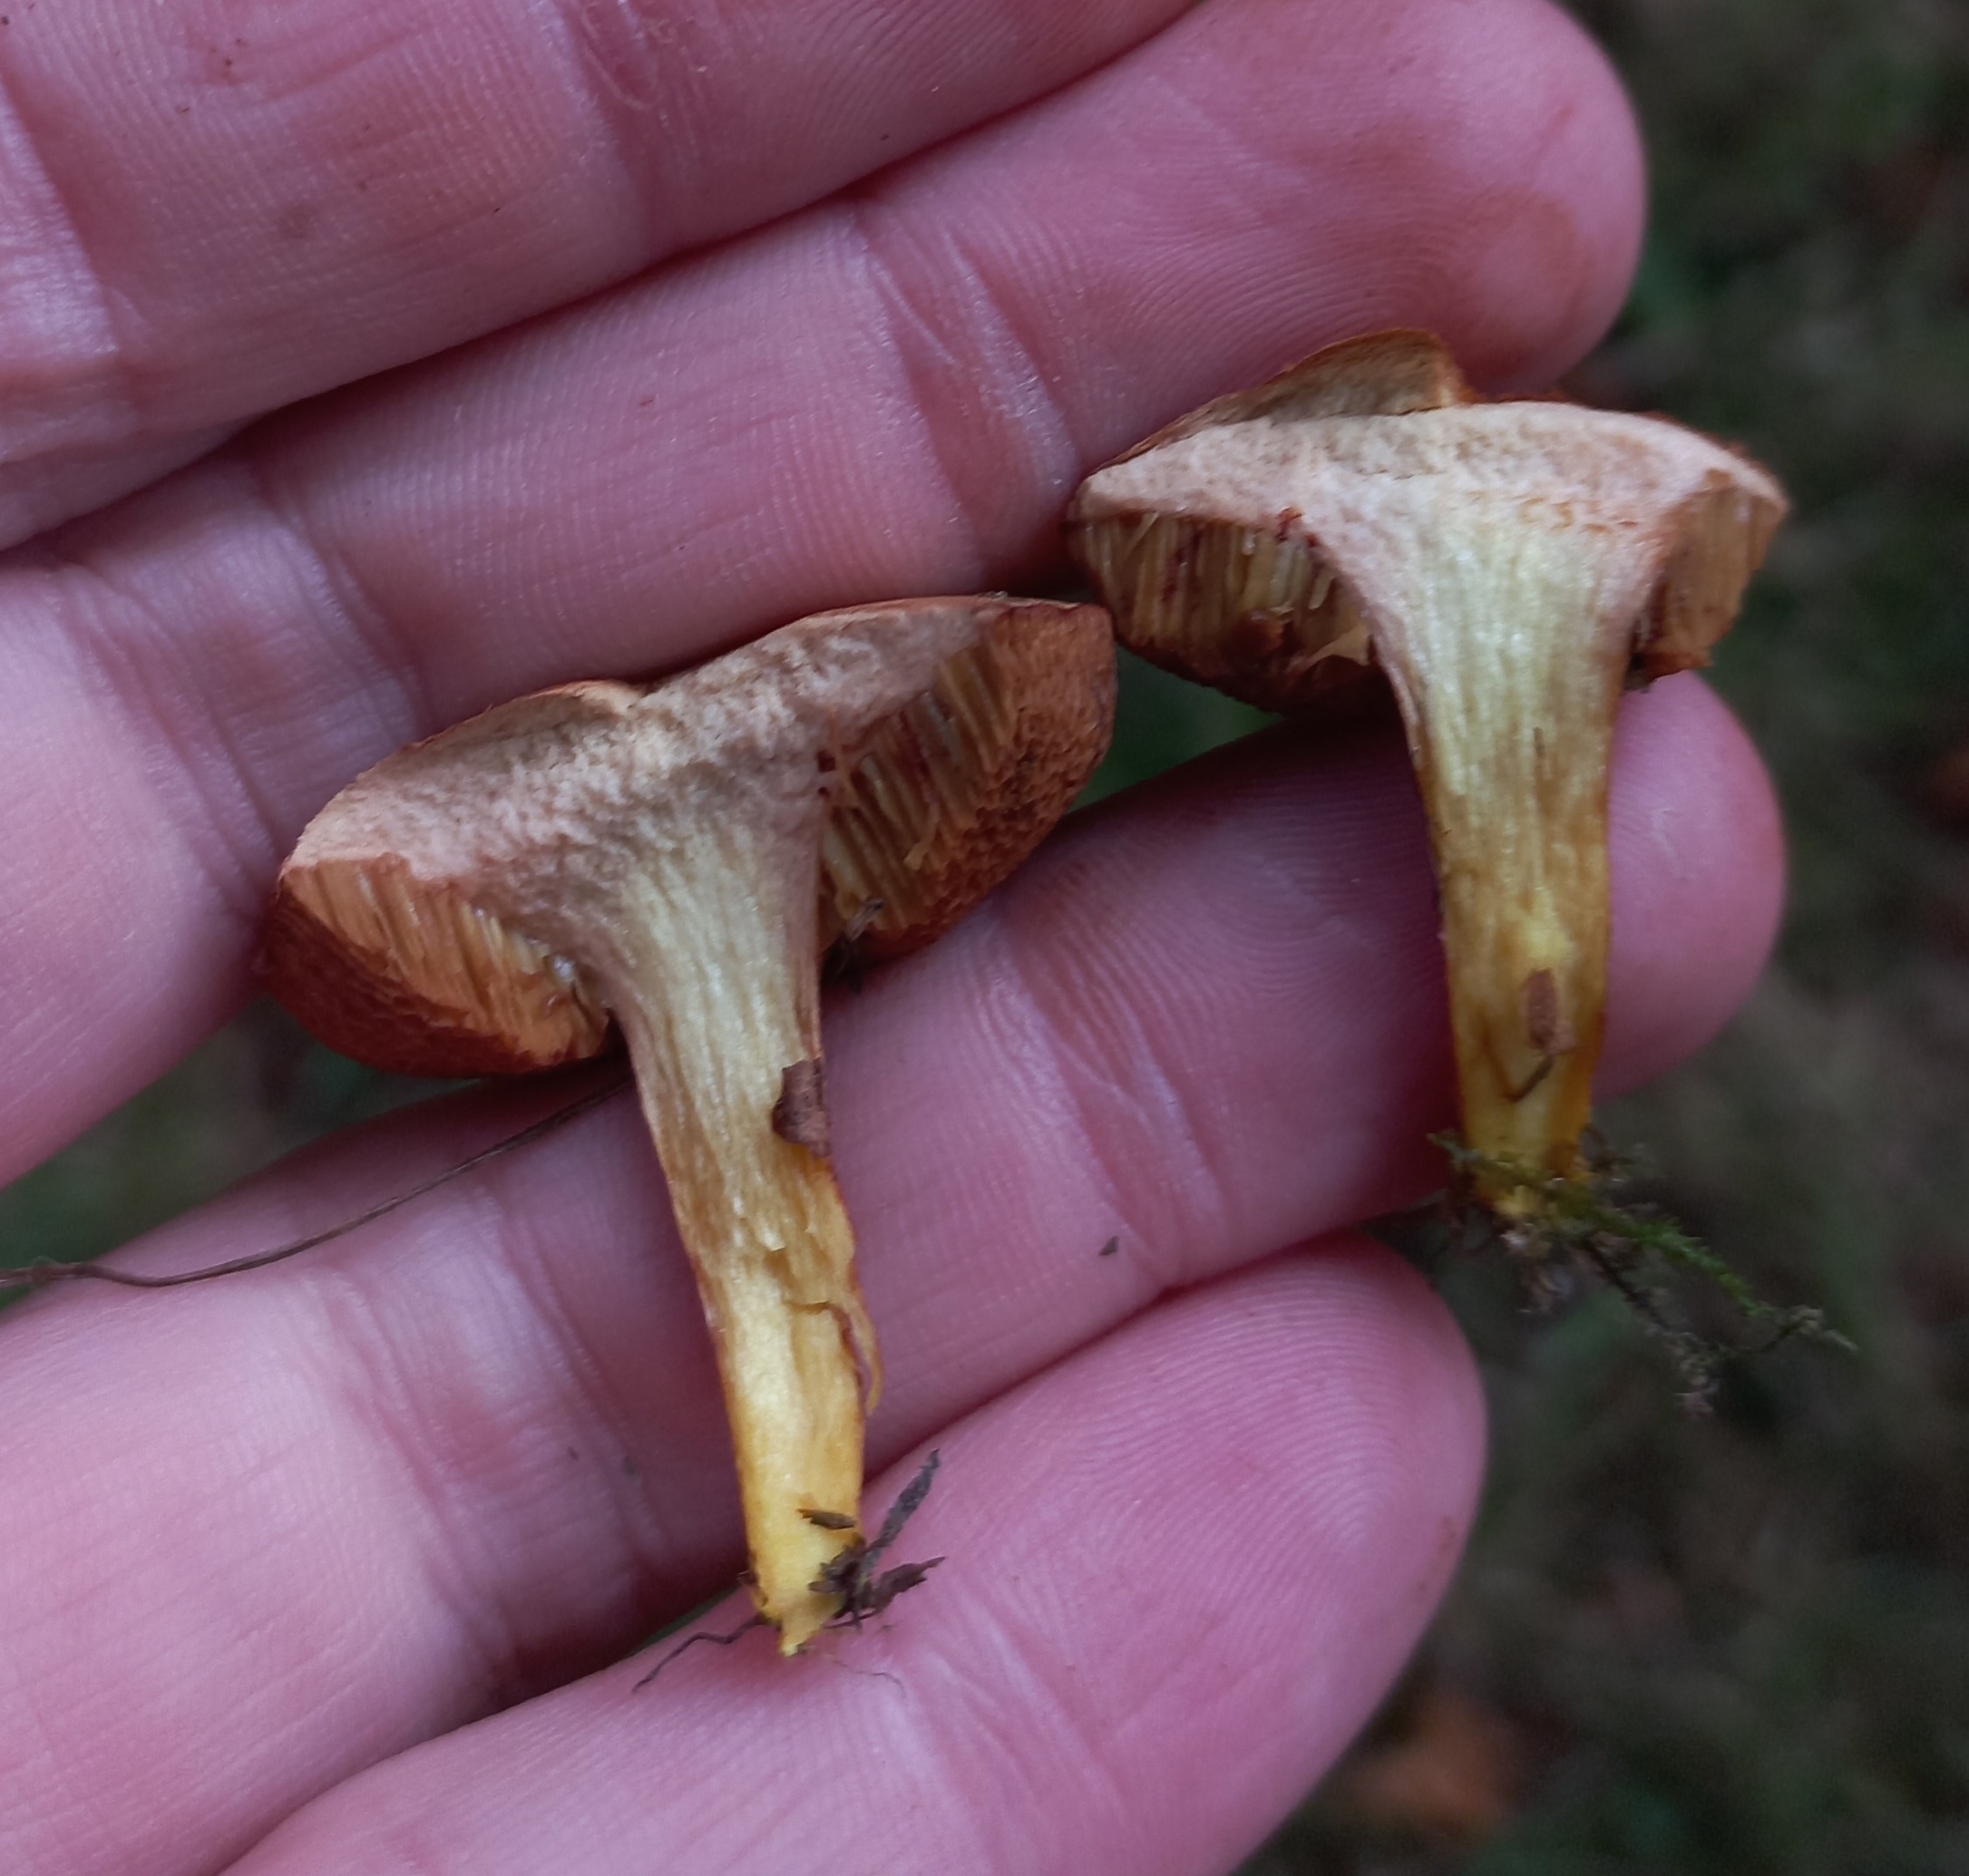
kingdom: Fungi
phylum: Basidiomycota
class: Agaricomycetes
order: Boletales
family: Boletaceae
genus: Chalciporus
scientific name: Chalciporus piperatus
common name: Peppery bolete
